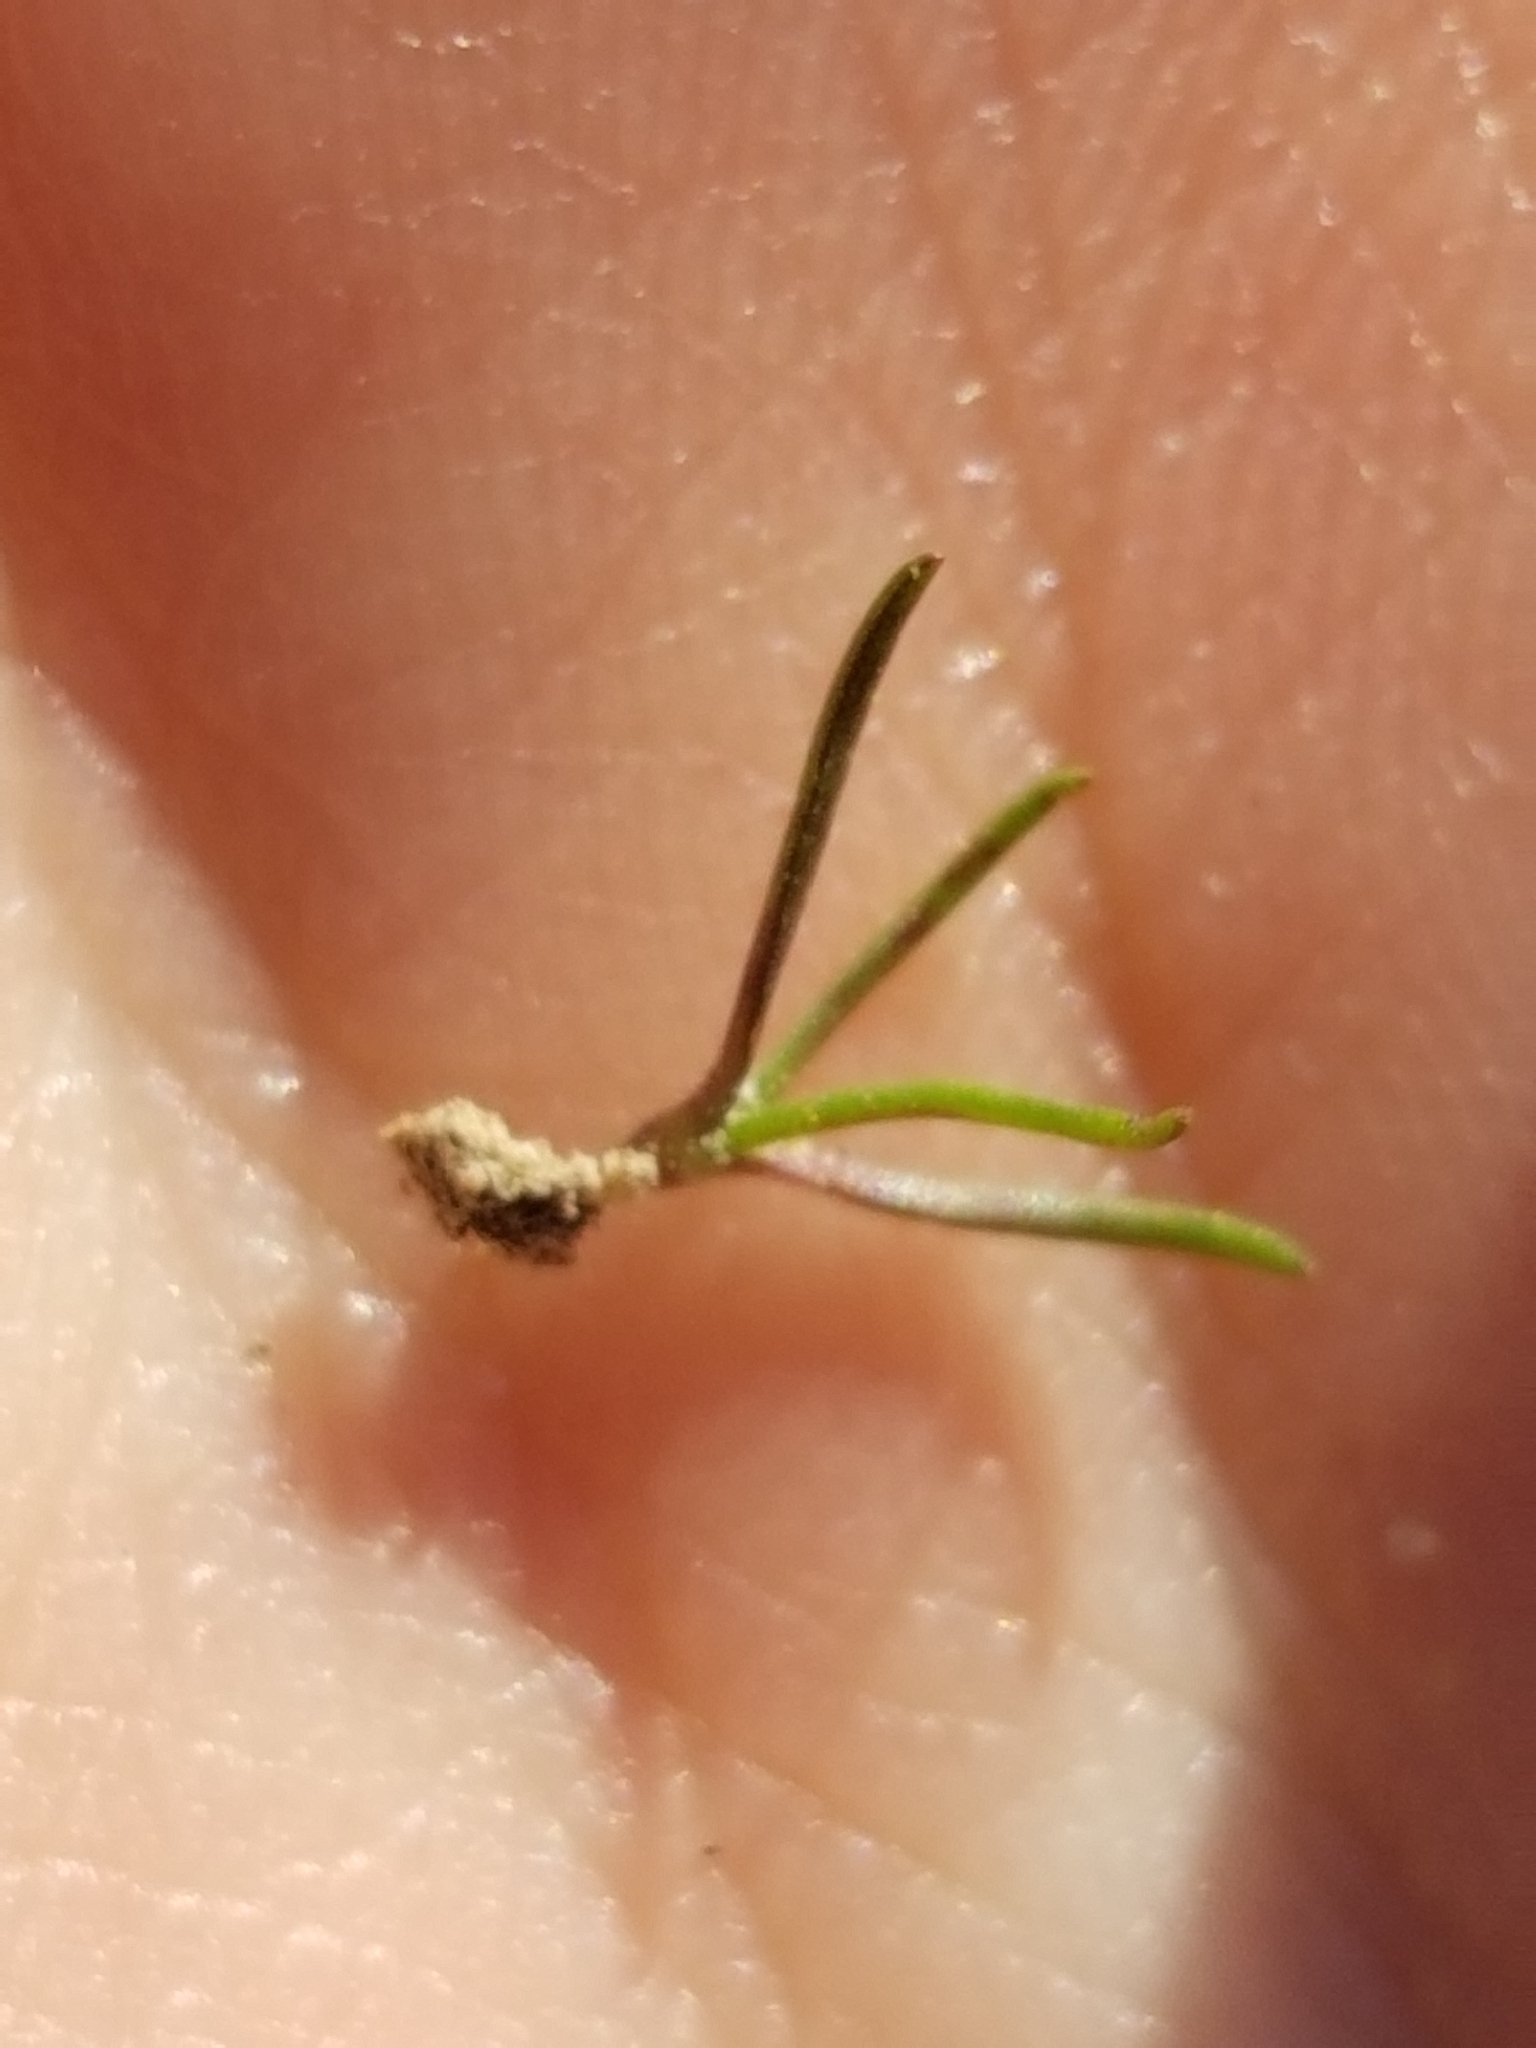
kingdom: Plantae
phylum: Tracheophyta
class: Magnoliopsida
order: Lamiales
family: Plantaginaceae
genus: Plantago
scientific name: Plantago erecta
